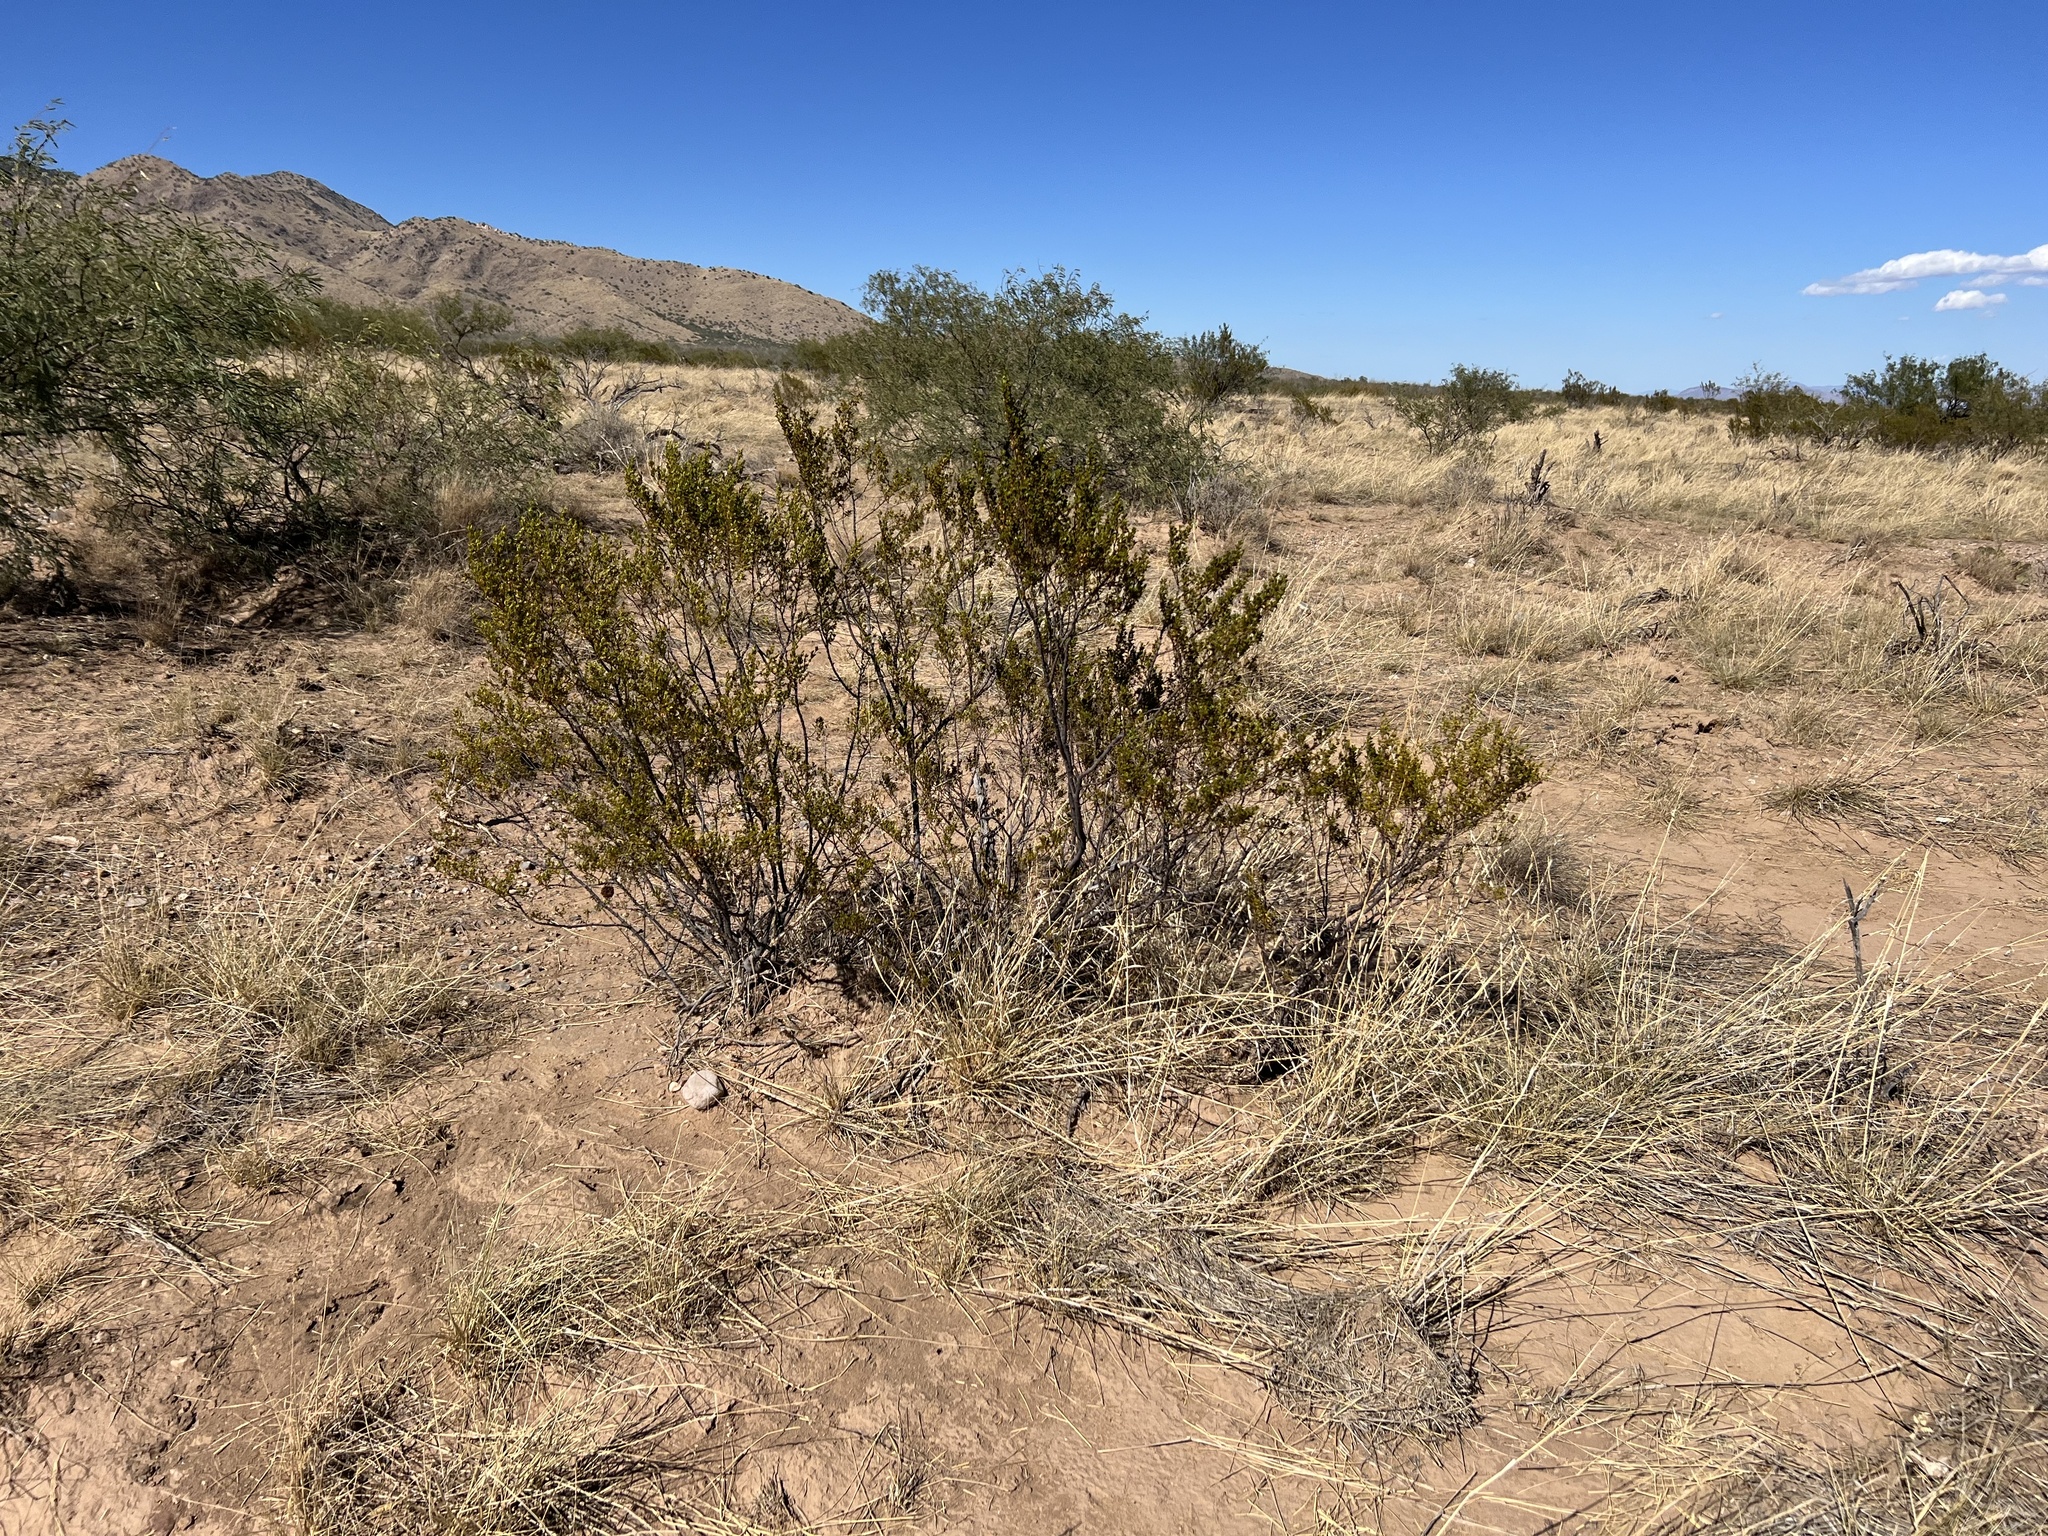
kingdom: Plantae
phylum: Tracheophyta
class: Magnoliopsida
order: Zygophyllales
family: Zygophyllaceae
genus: Larrea
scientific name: Larrea tridentata
